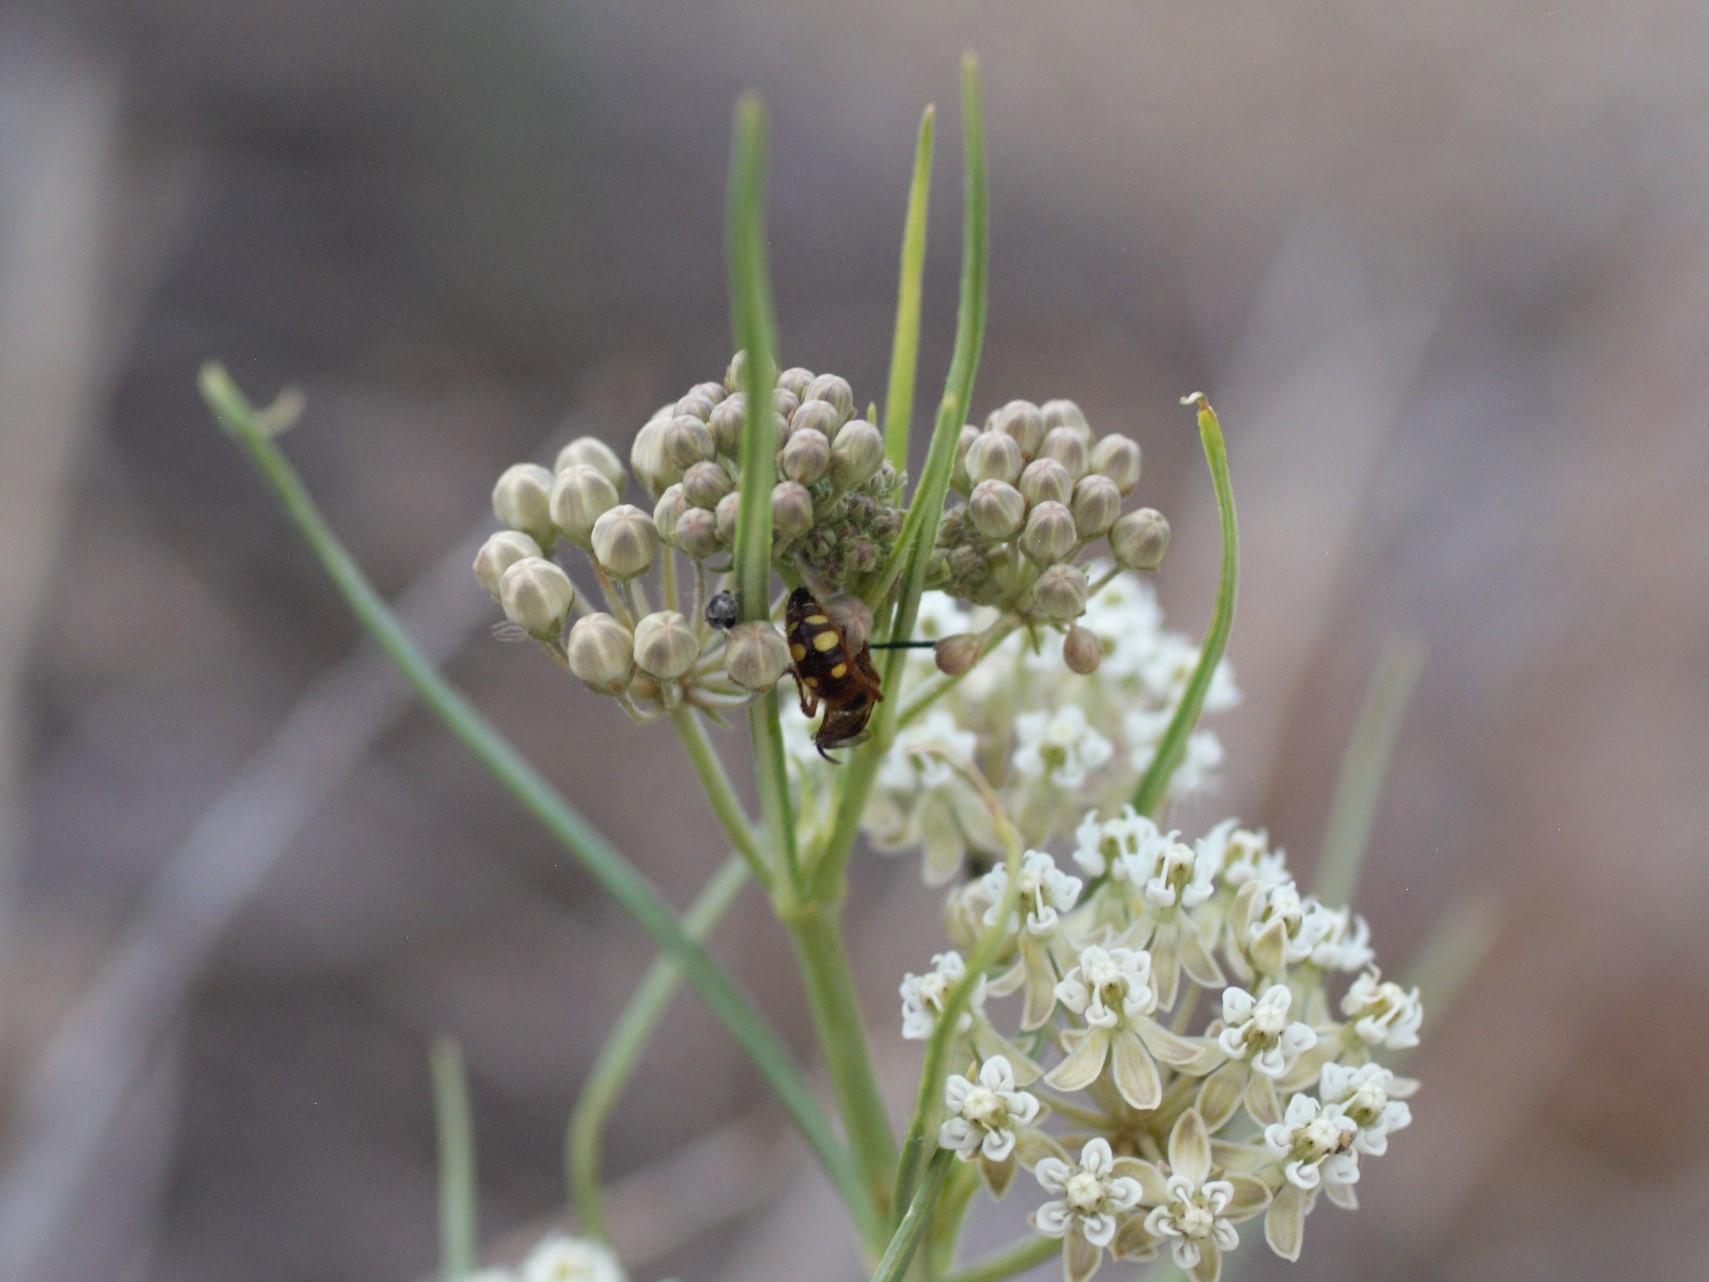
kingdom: Plantae
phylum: Tracheophyta
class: Magnoliopsida
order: Gentianales
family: Apocynaceae
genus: Asclepias
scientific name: Asclepias subverticillata
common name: Horsetail milkweed
